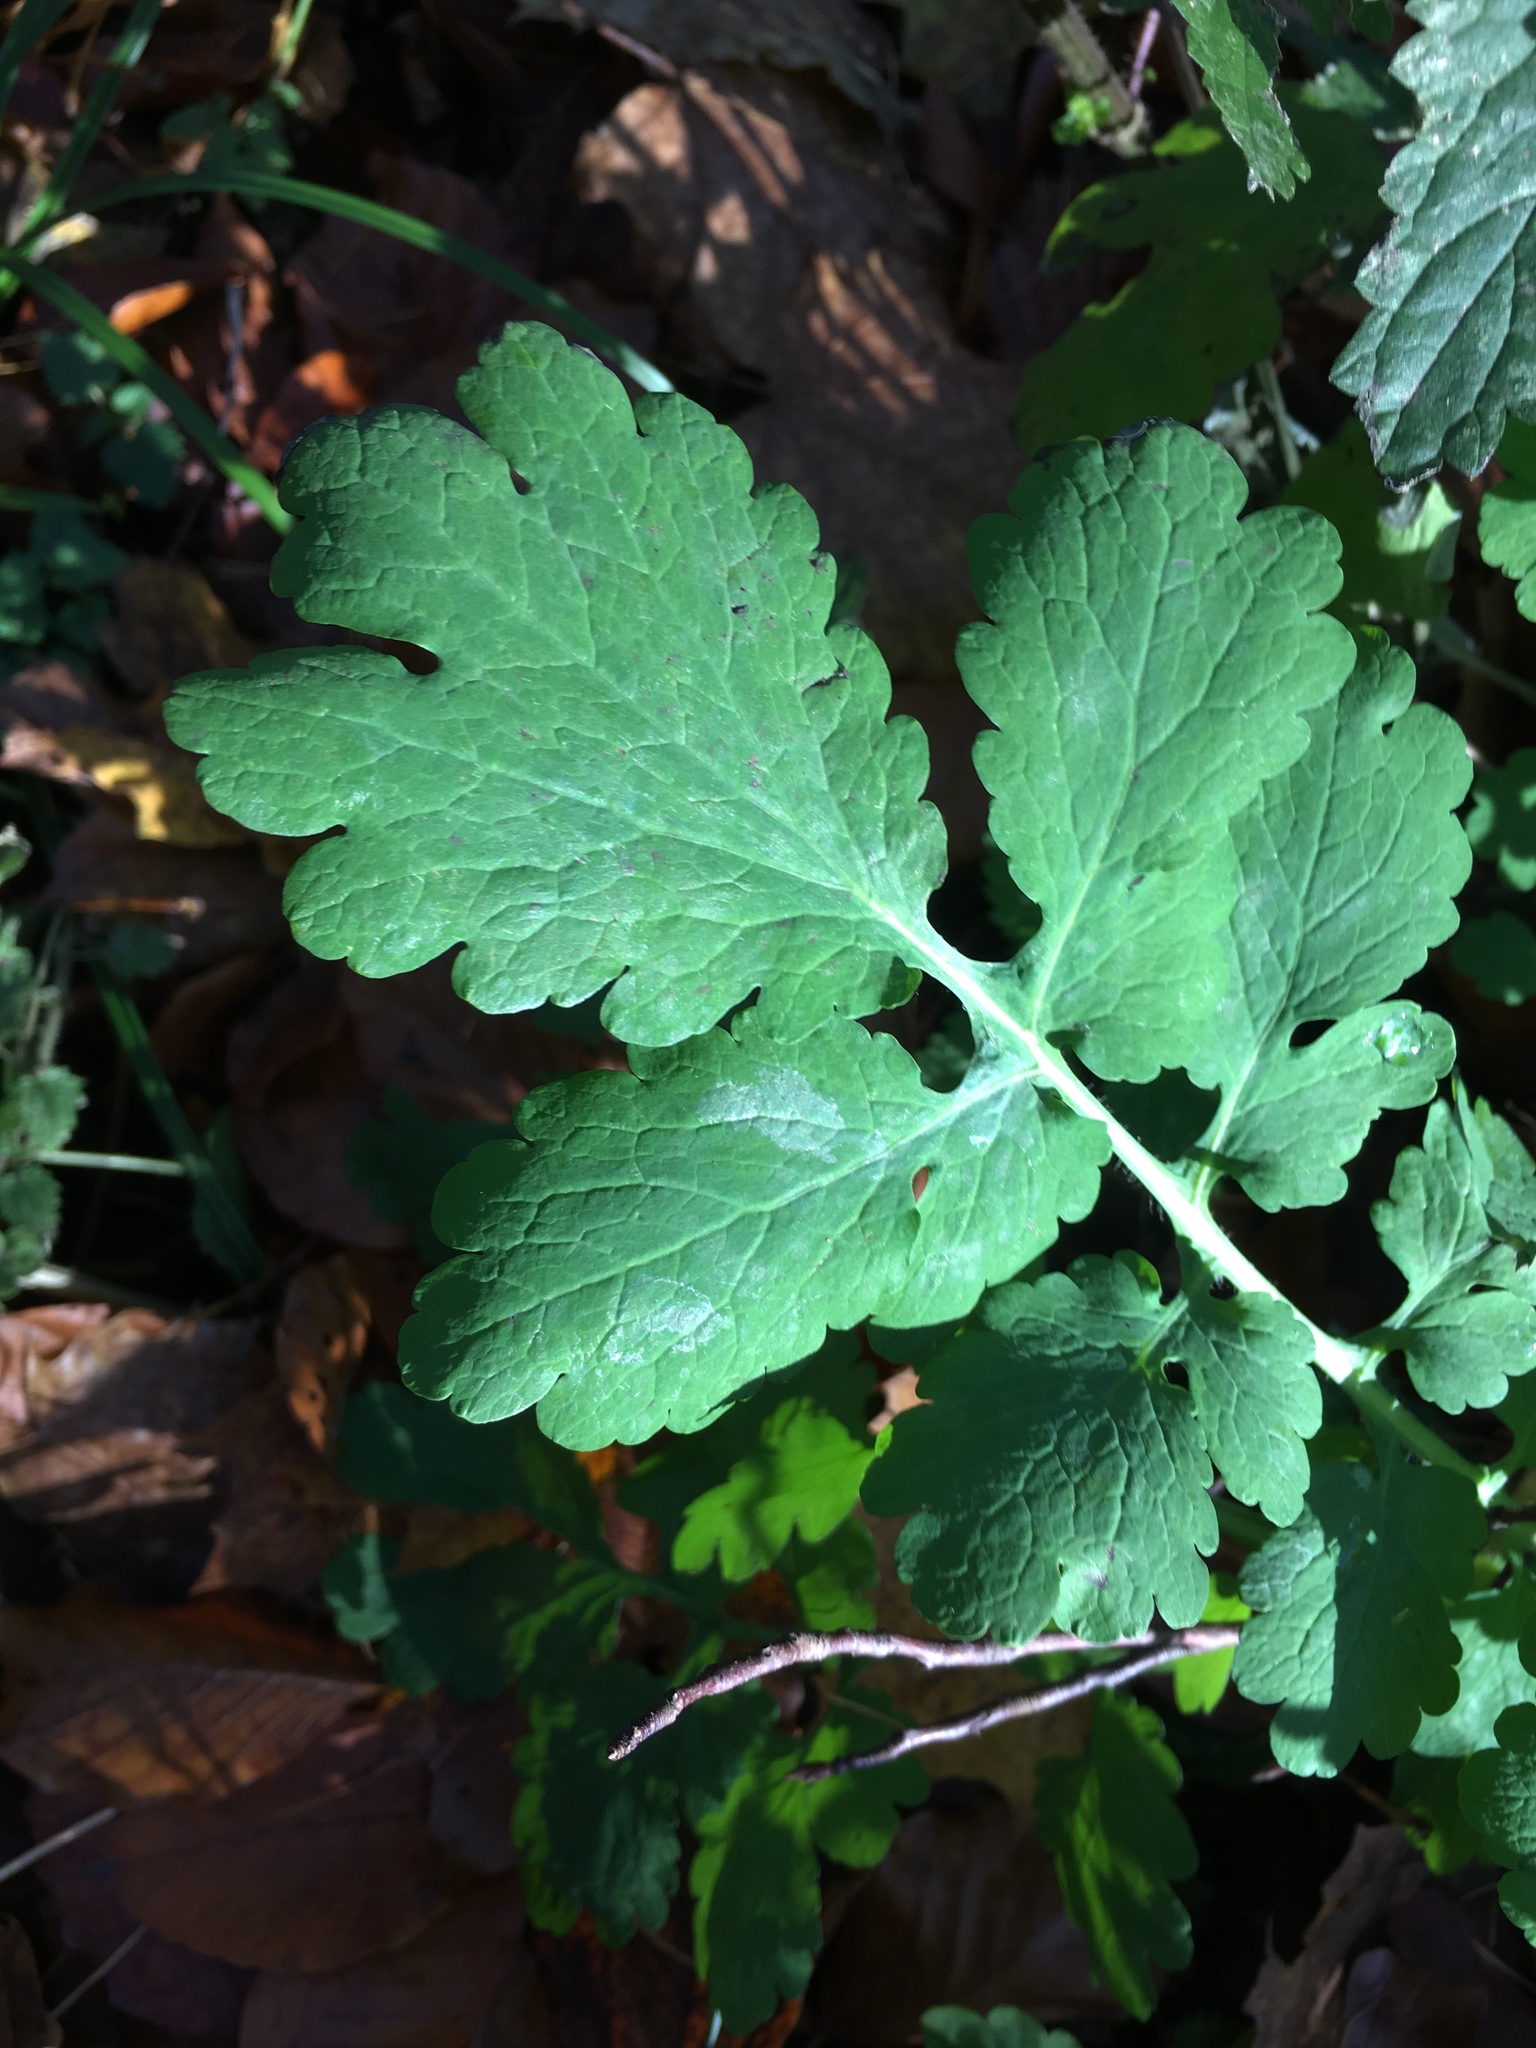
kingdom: Plantae
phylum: Tracheophyta
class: Magnoliopsida
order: Ranunculales
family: Papaveraceae
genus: Chelidonium
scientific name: Chelidonium majus
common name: Greater celandine
